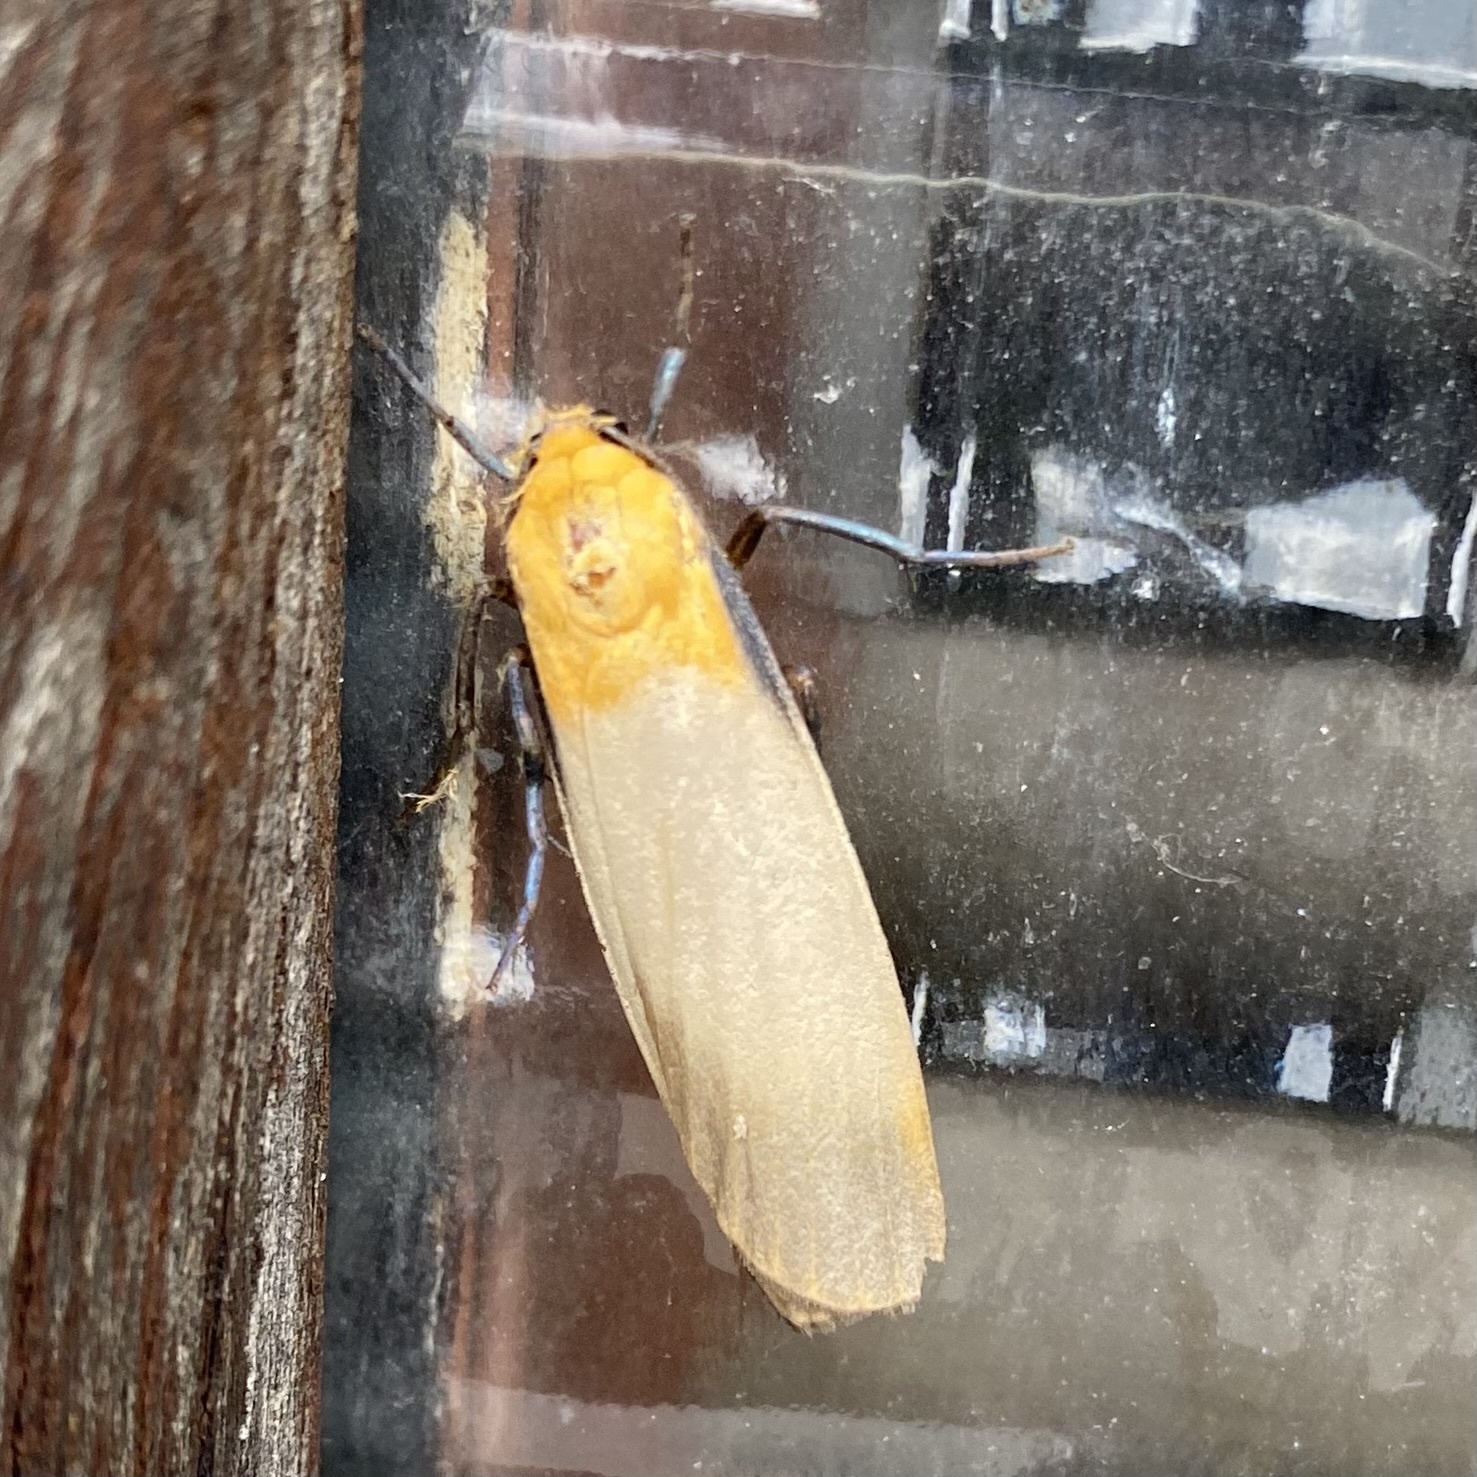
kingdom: Animalia
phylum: Arthropoda
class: Insecta
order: Lepidoptera
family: Erebidae
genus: Lithosia
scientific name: Lithosia quadra
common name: Four-spotted footman
